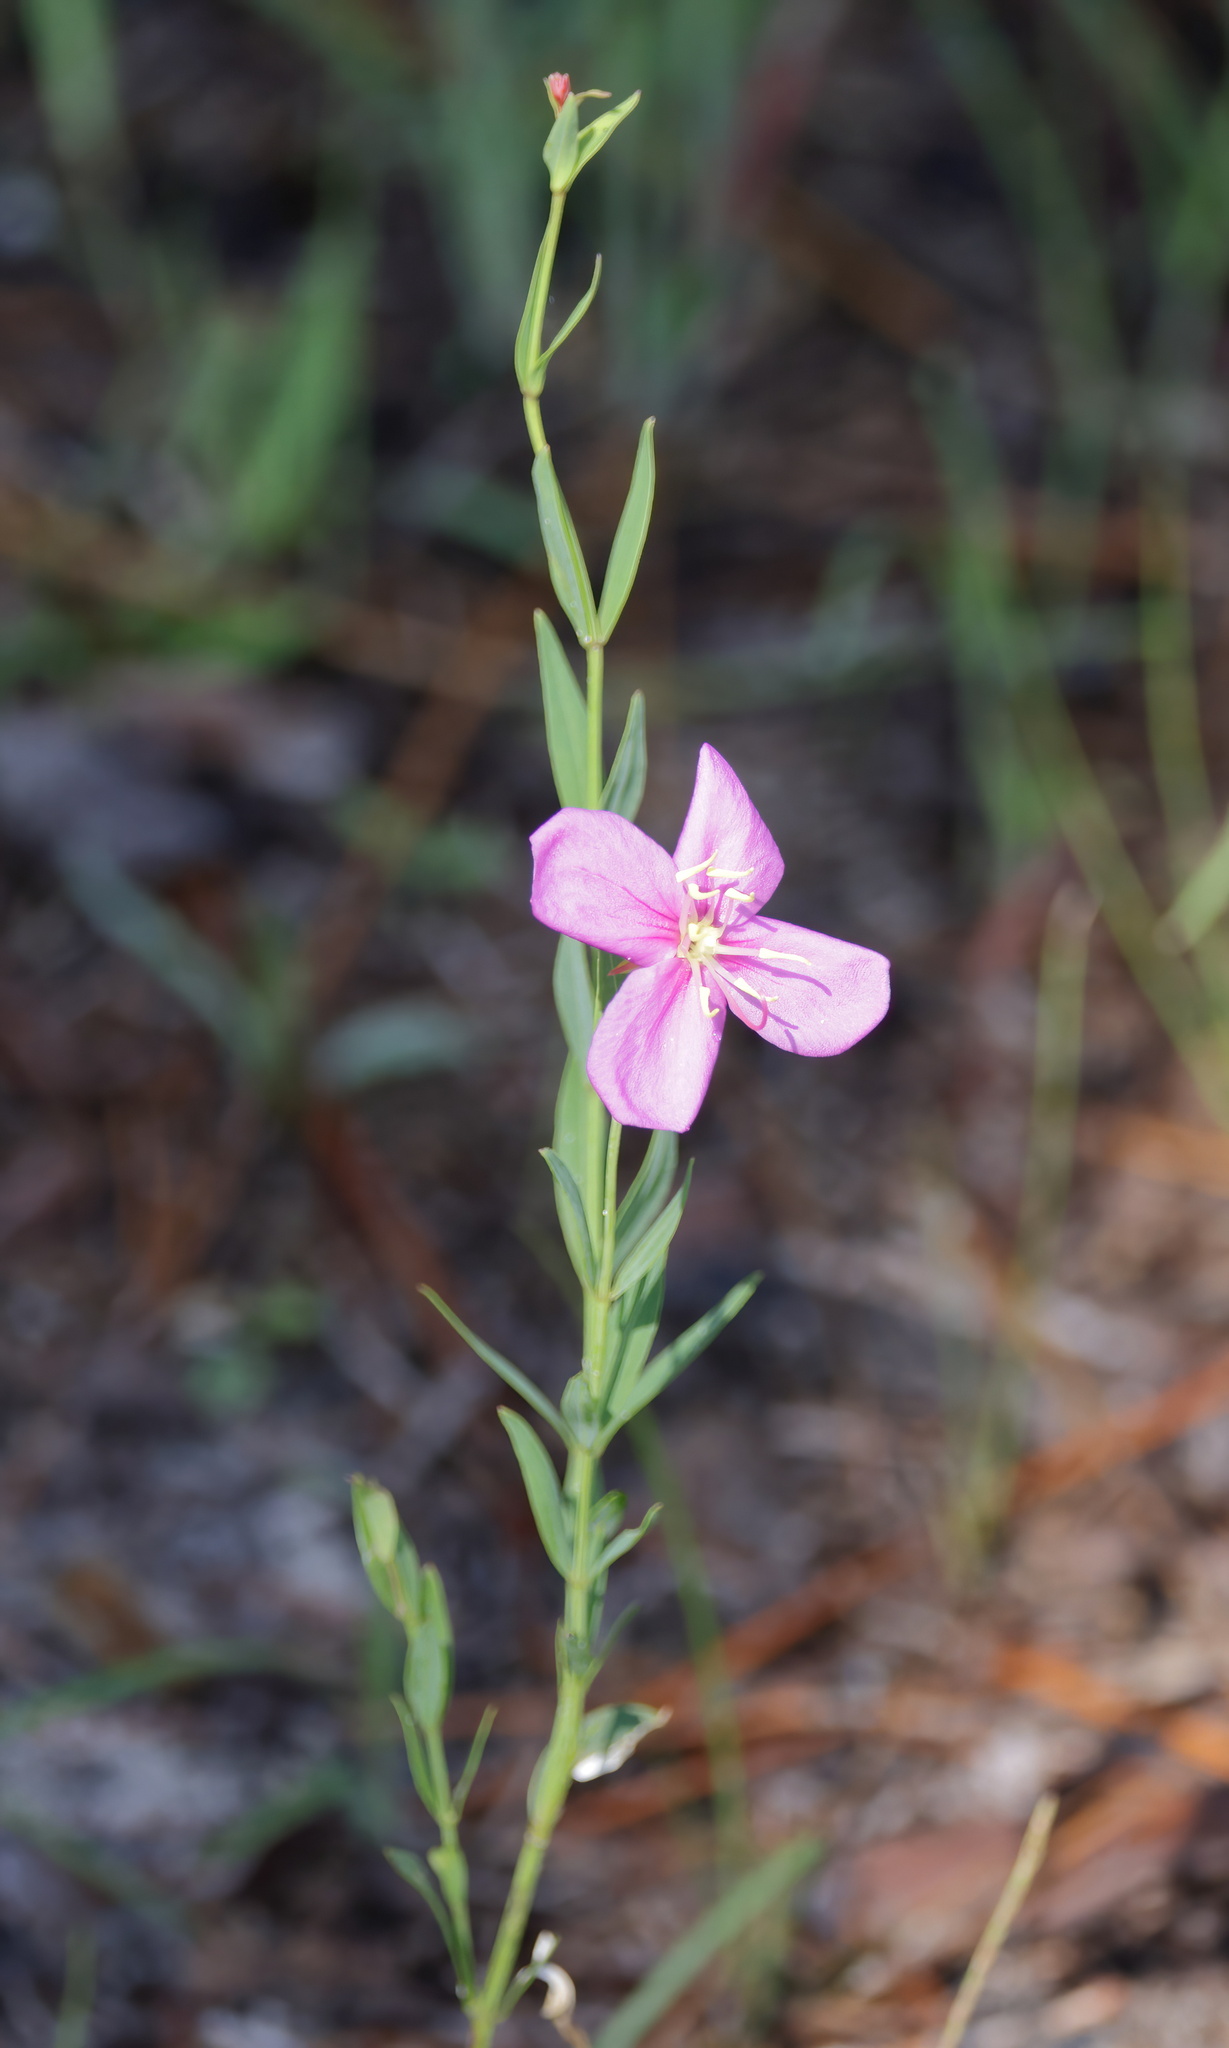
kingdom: Plantae
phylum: Tracheophyta
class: Magnoliopsida
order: Myrtales
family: Melastomataceae
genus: Rhexia
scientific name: Rhexia alifanus
